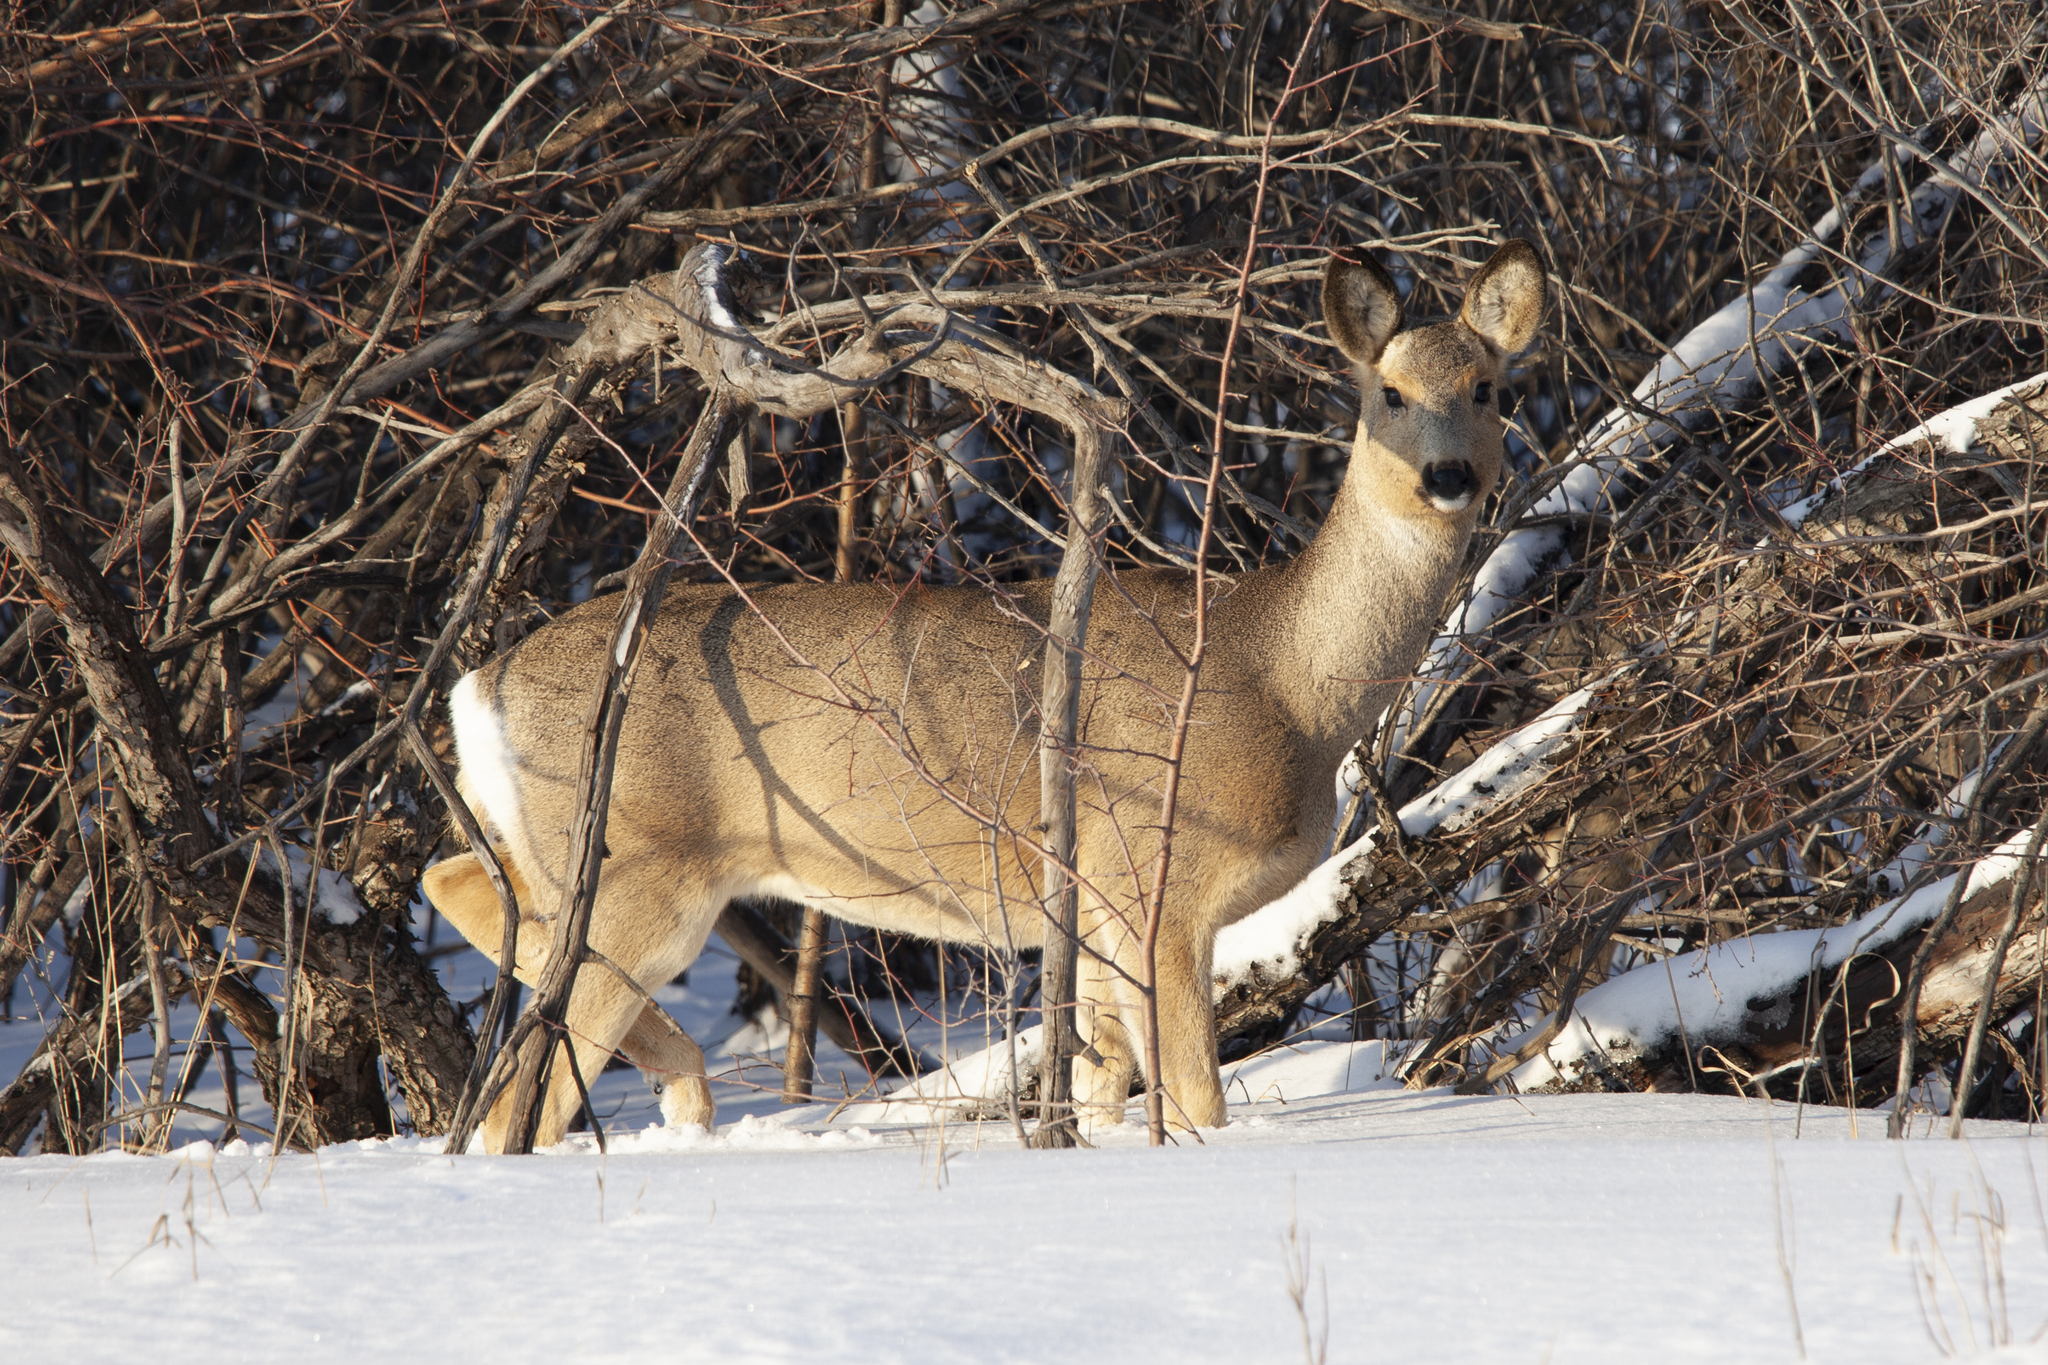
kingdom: Animalia
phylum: Chordata
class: Mammalia
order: Artiodactyla
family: Cervidae
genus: Capreolus
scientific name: Capreolus pygargus
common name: Siberian roe
